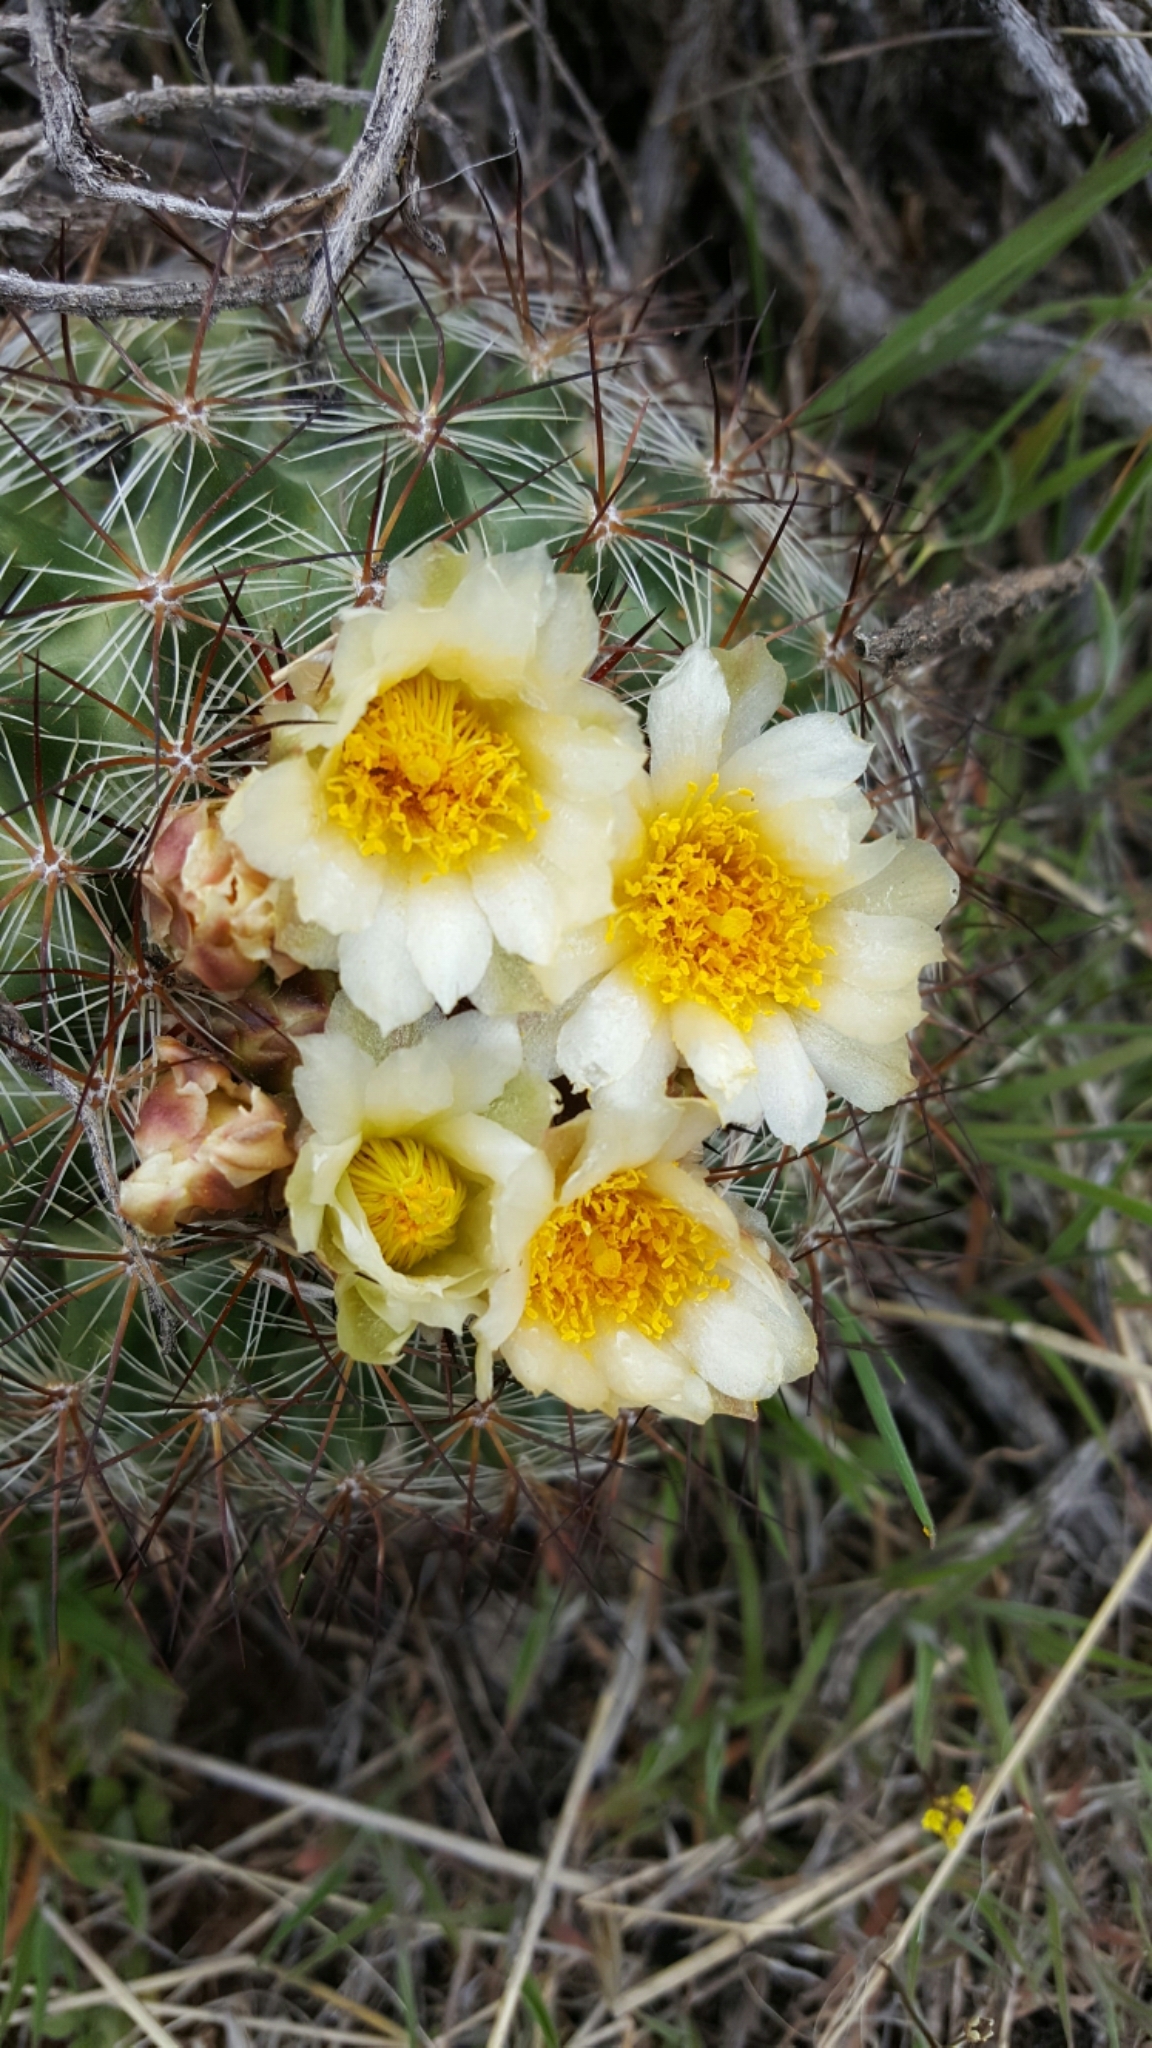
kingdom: Plantae
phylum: Tracheophyta
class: Magnoliopsida
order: Caryophyllales
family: Cactaceae
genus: Pediocactus
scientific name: Pediocactus simpsonii
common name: Simpson's hedgehog cactus
